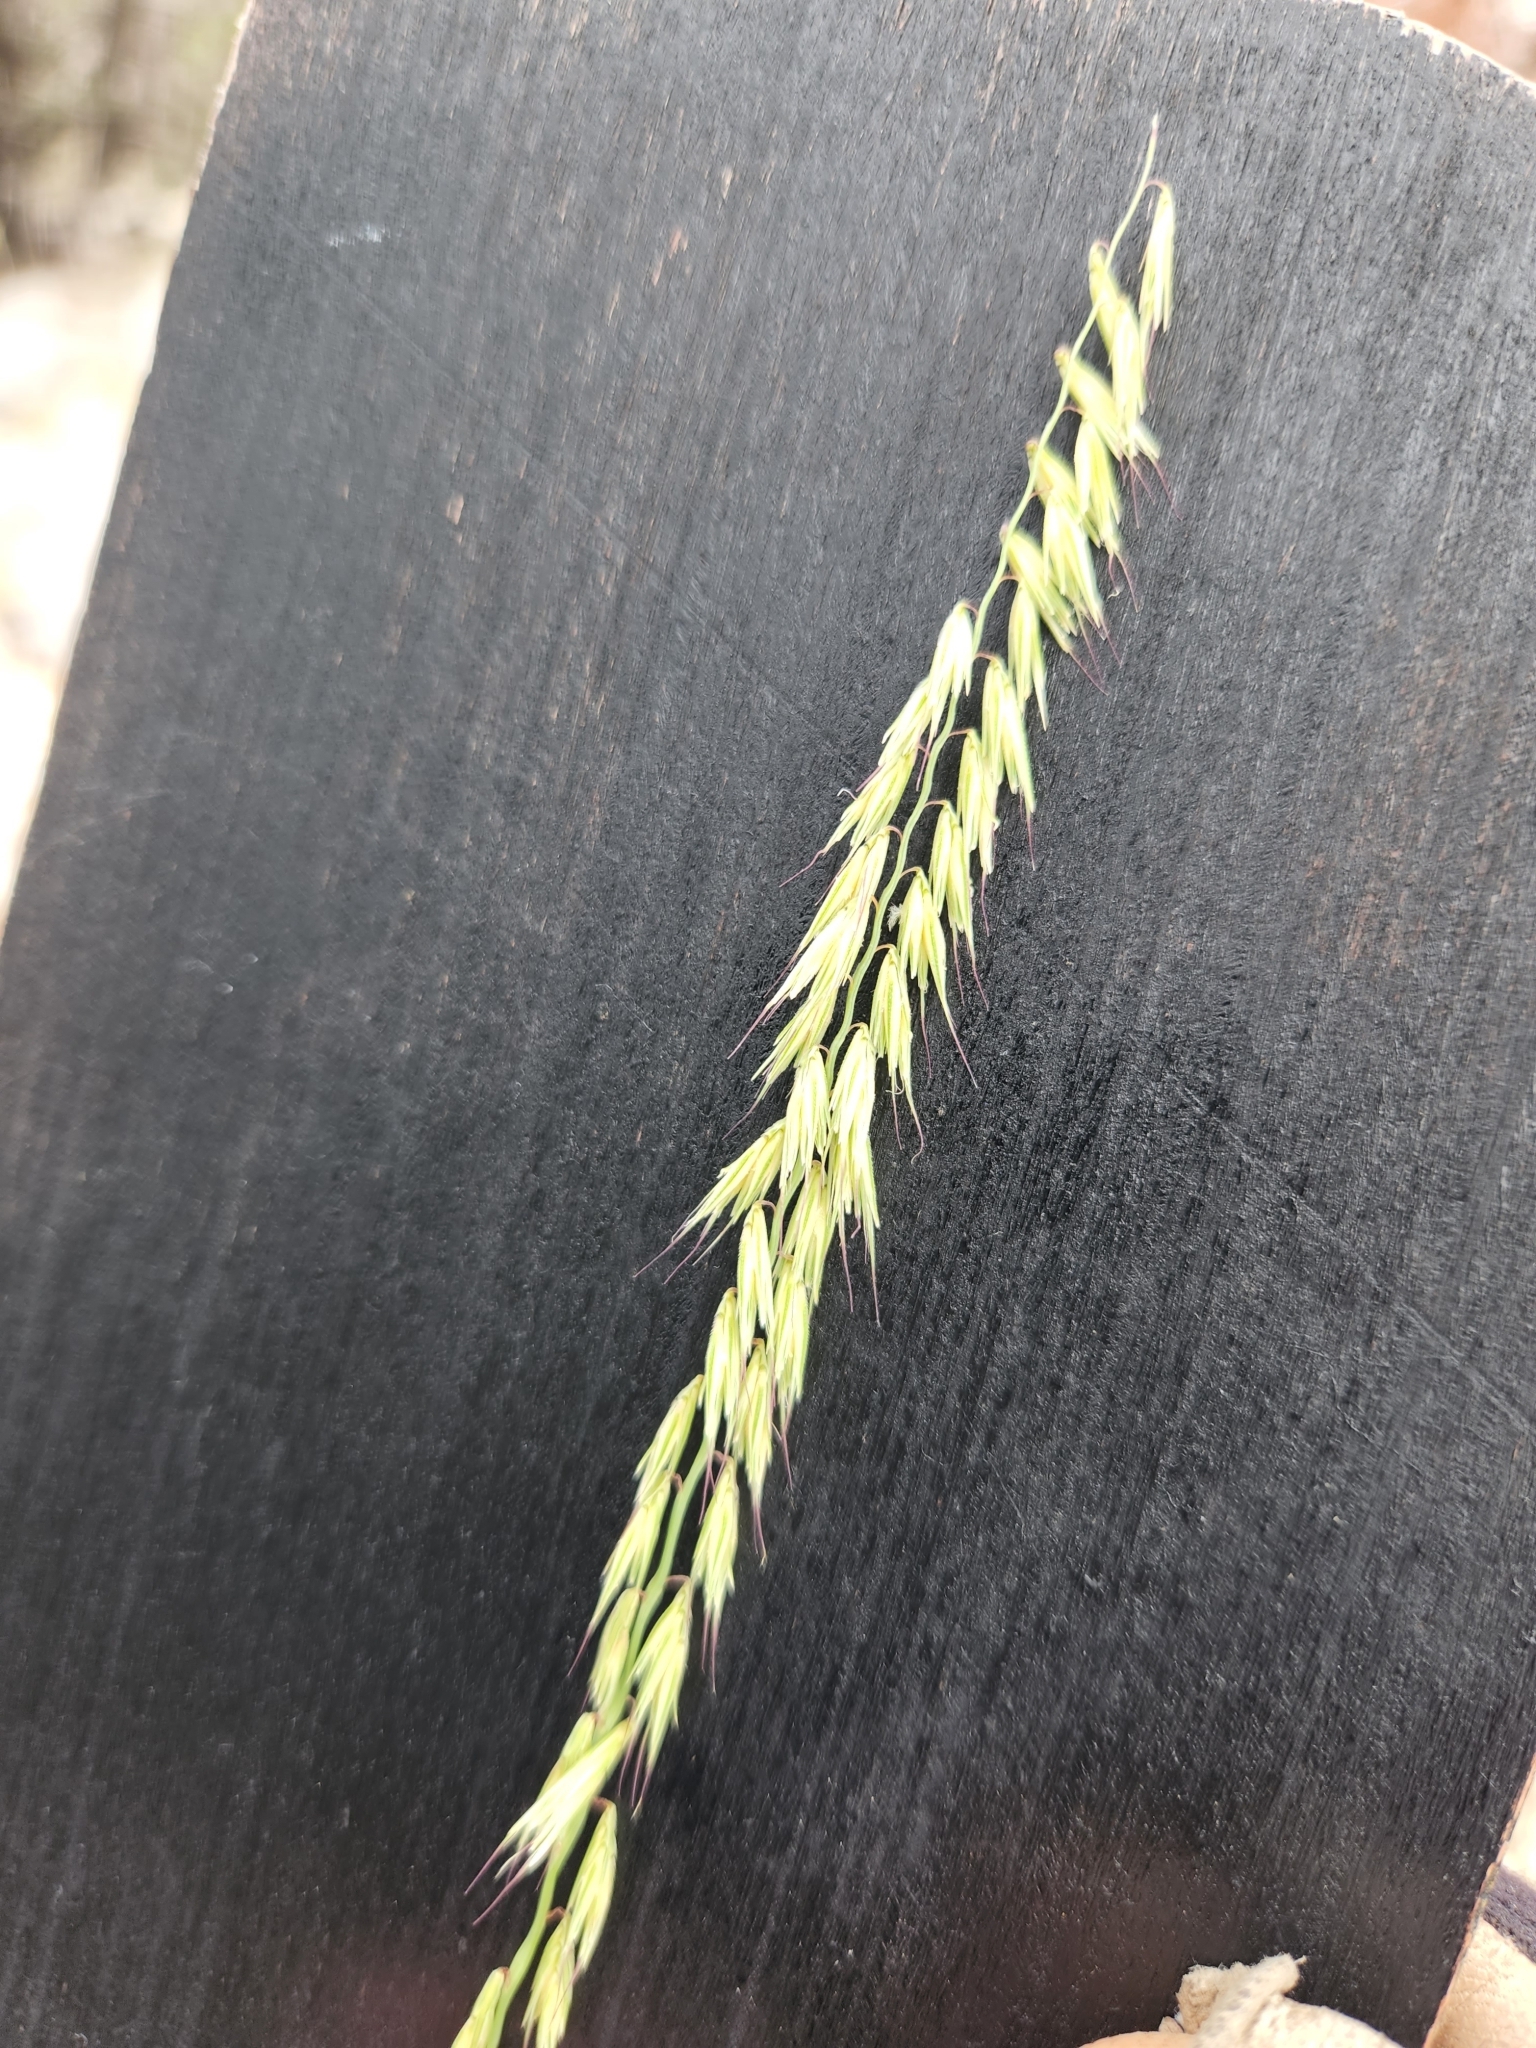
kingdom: Plantae
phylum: Tracheophyta
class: Liliopsida
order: Poales
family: Poaceae
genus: Bouteloua
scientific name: Bouteloua curtipendula
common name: Side-oats grama
